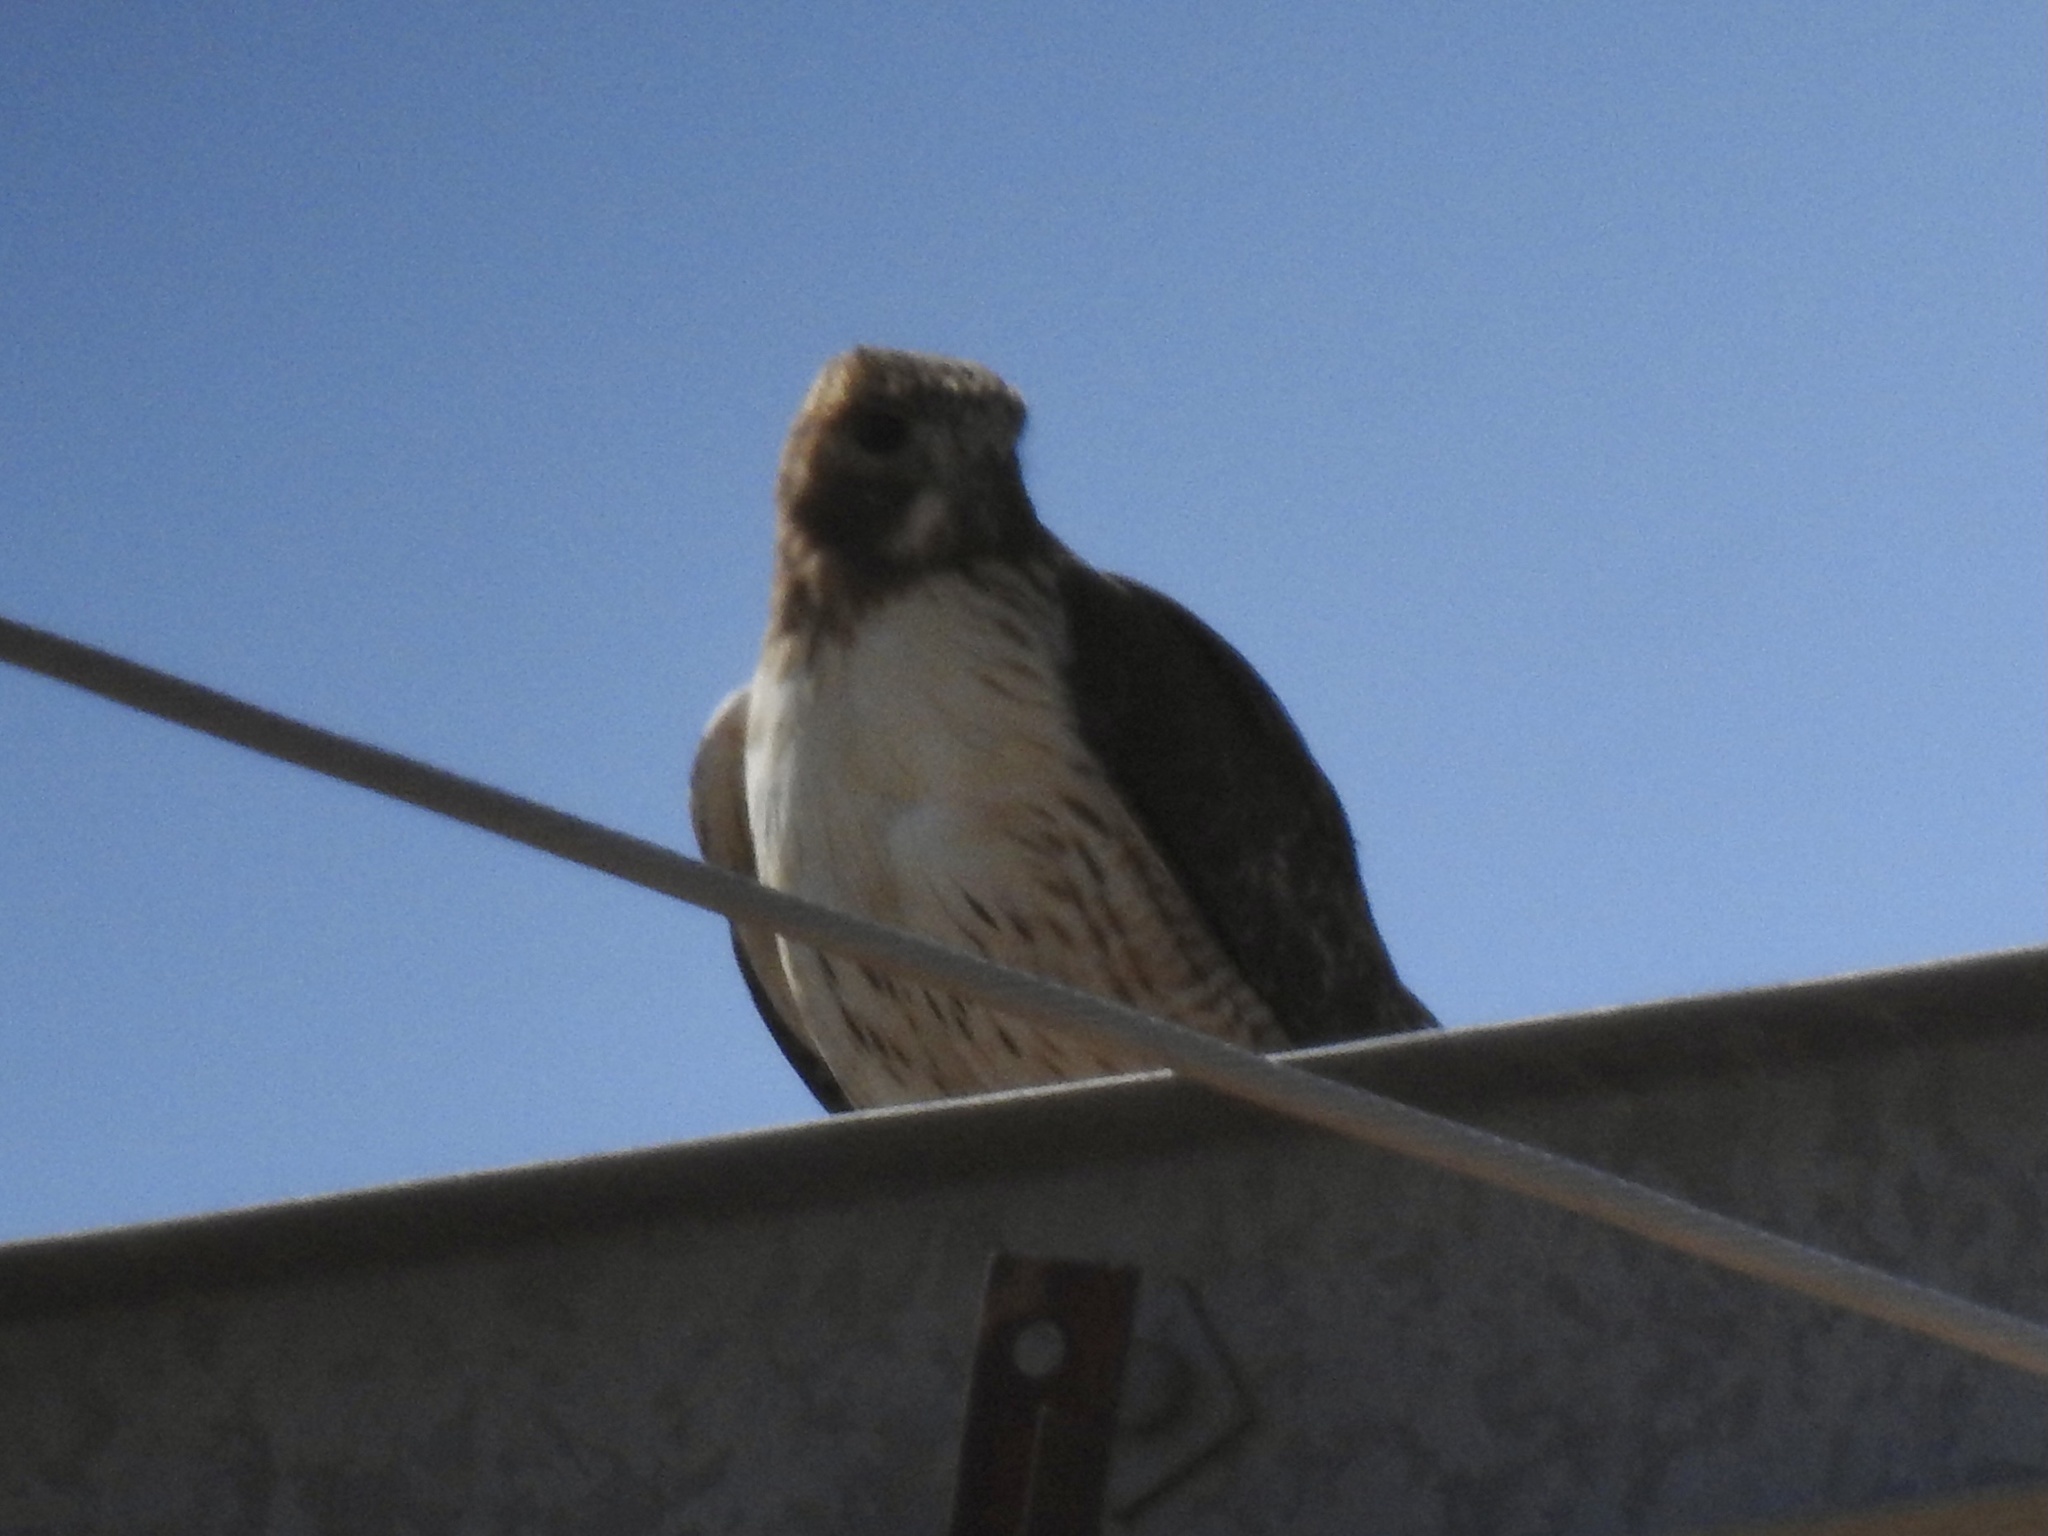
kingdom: Animalia
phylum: Chordata
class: Aves
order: Accipitriformes
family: Accipitridae
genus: Buteo
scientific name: Buteo jamaicensis
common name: Red-tailed hawk
